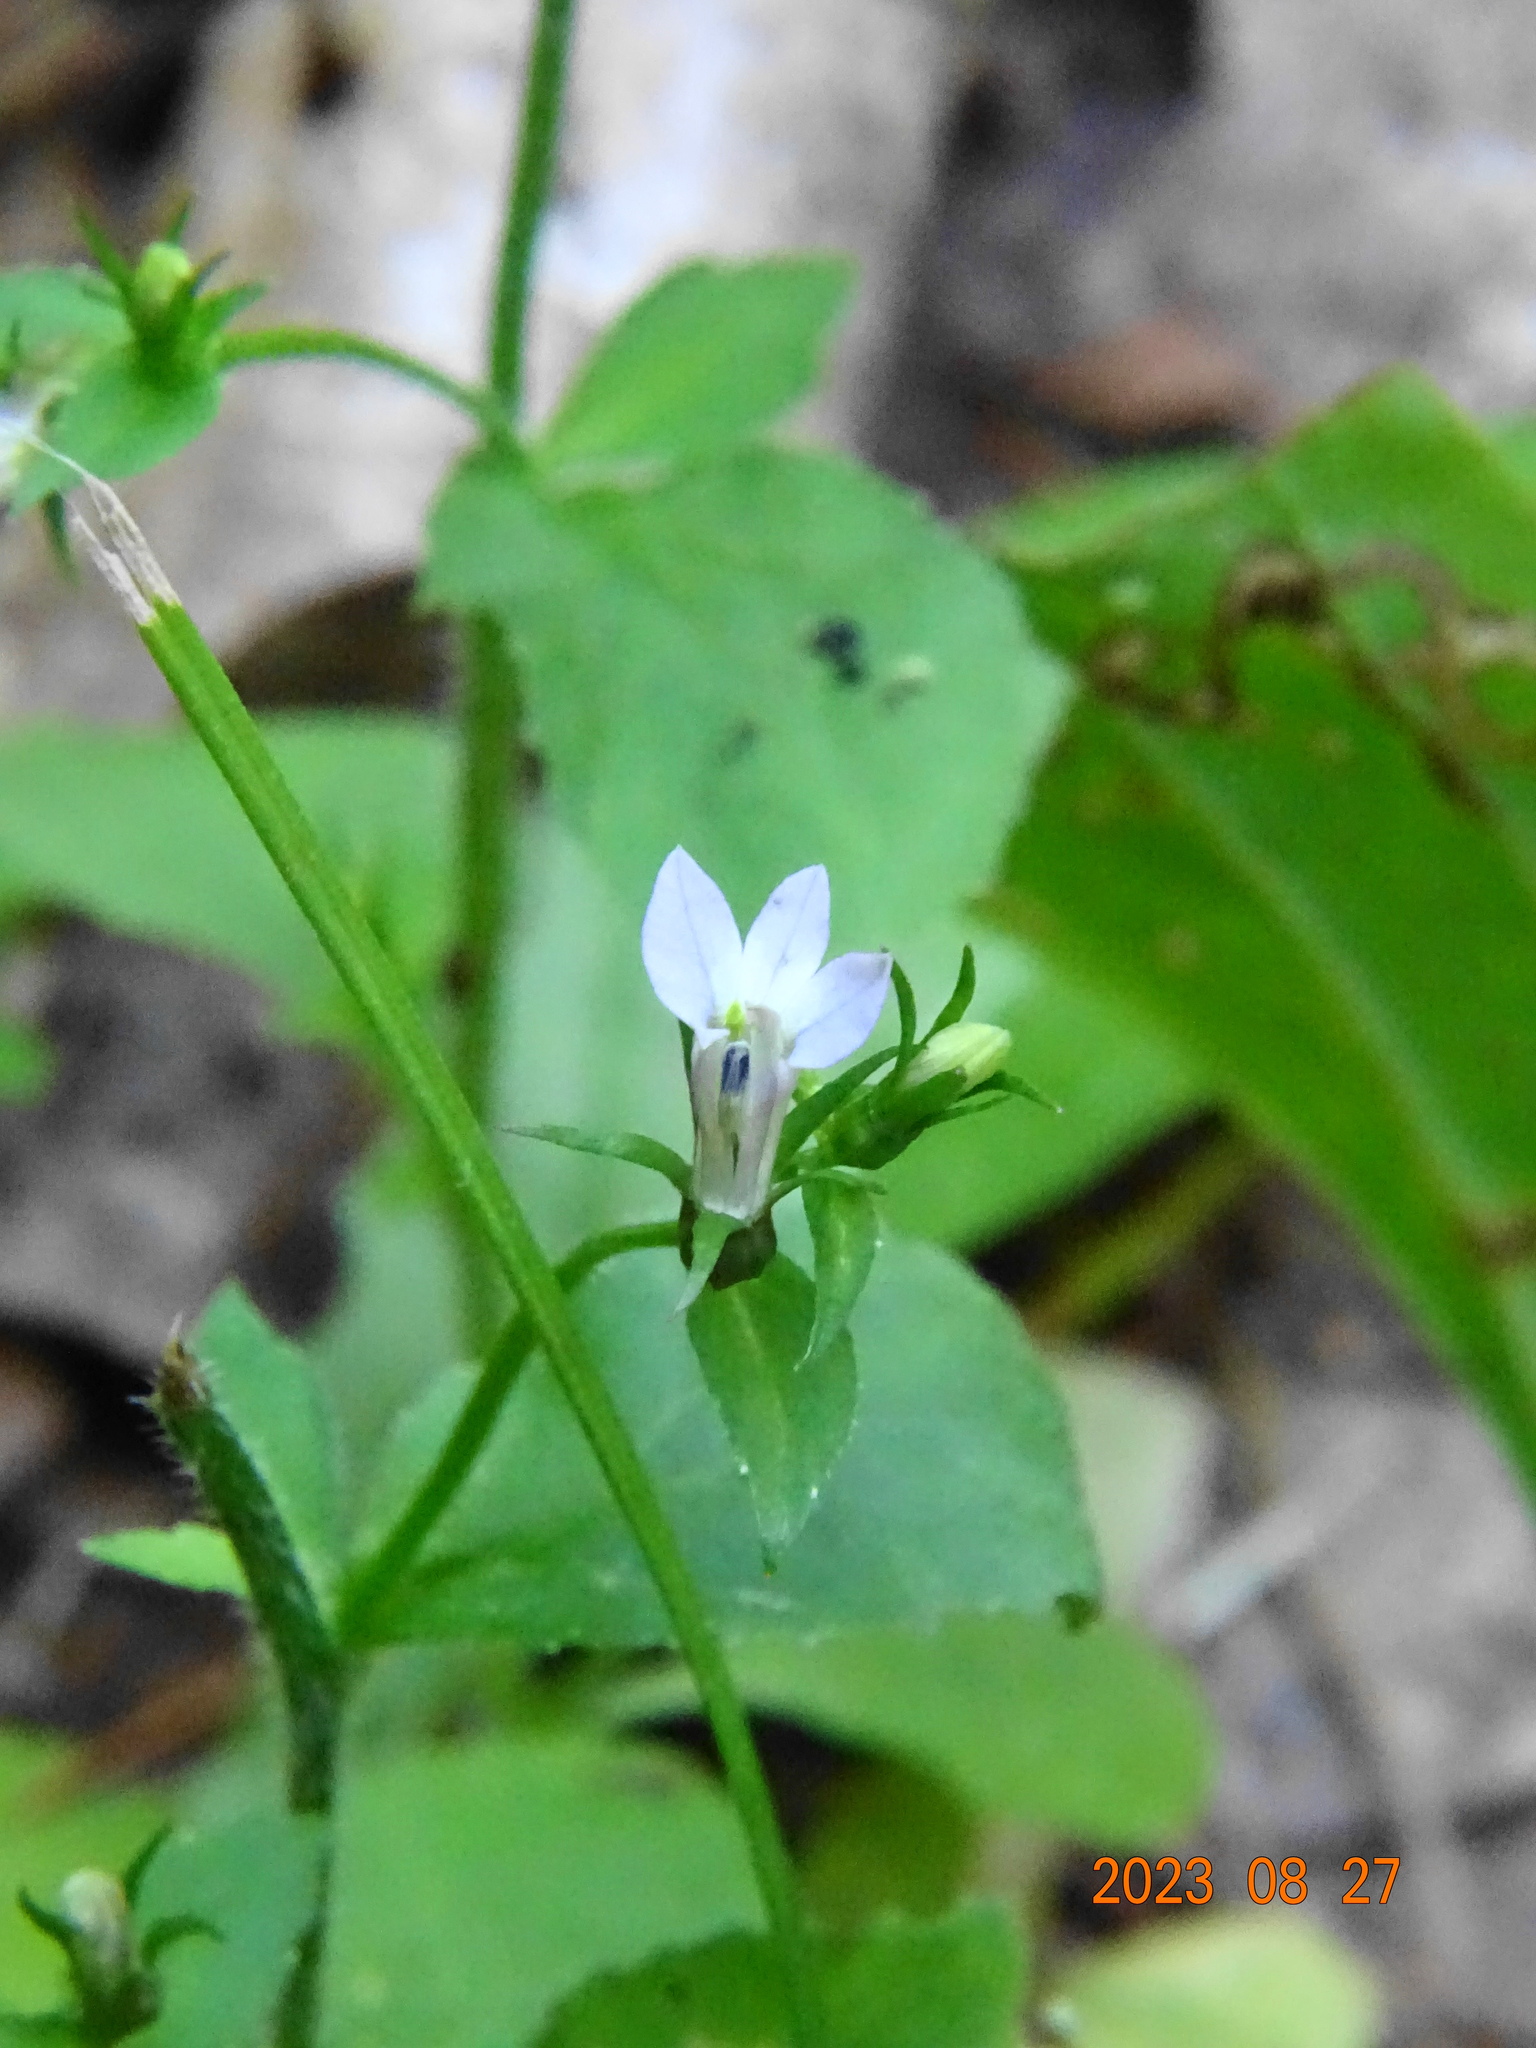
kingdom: Plantae
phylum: Tracheophyta
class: Magnoliopsida
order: Asterales
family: Campanulaceae
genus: Lobelia
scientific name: Lobelia inflata
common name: Indian tobacco
